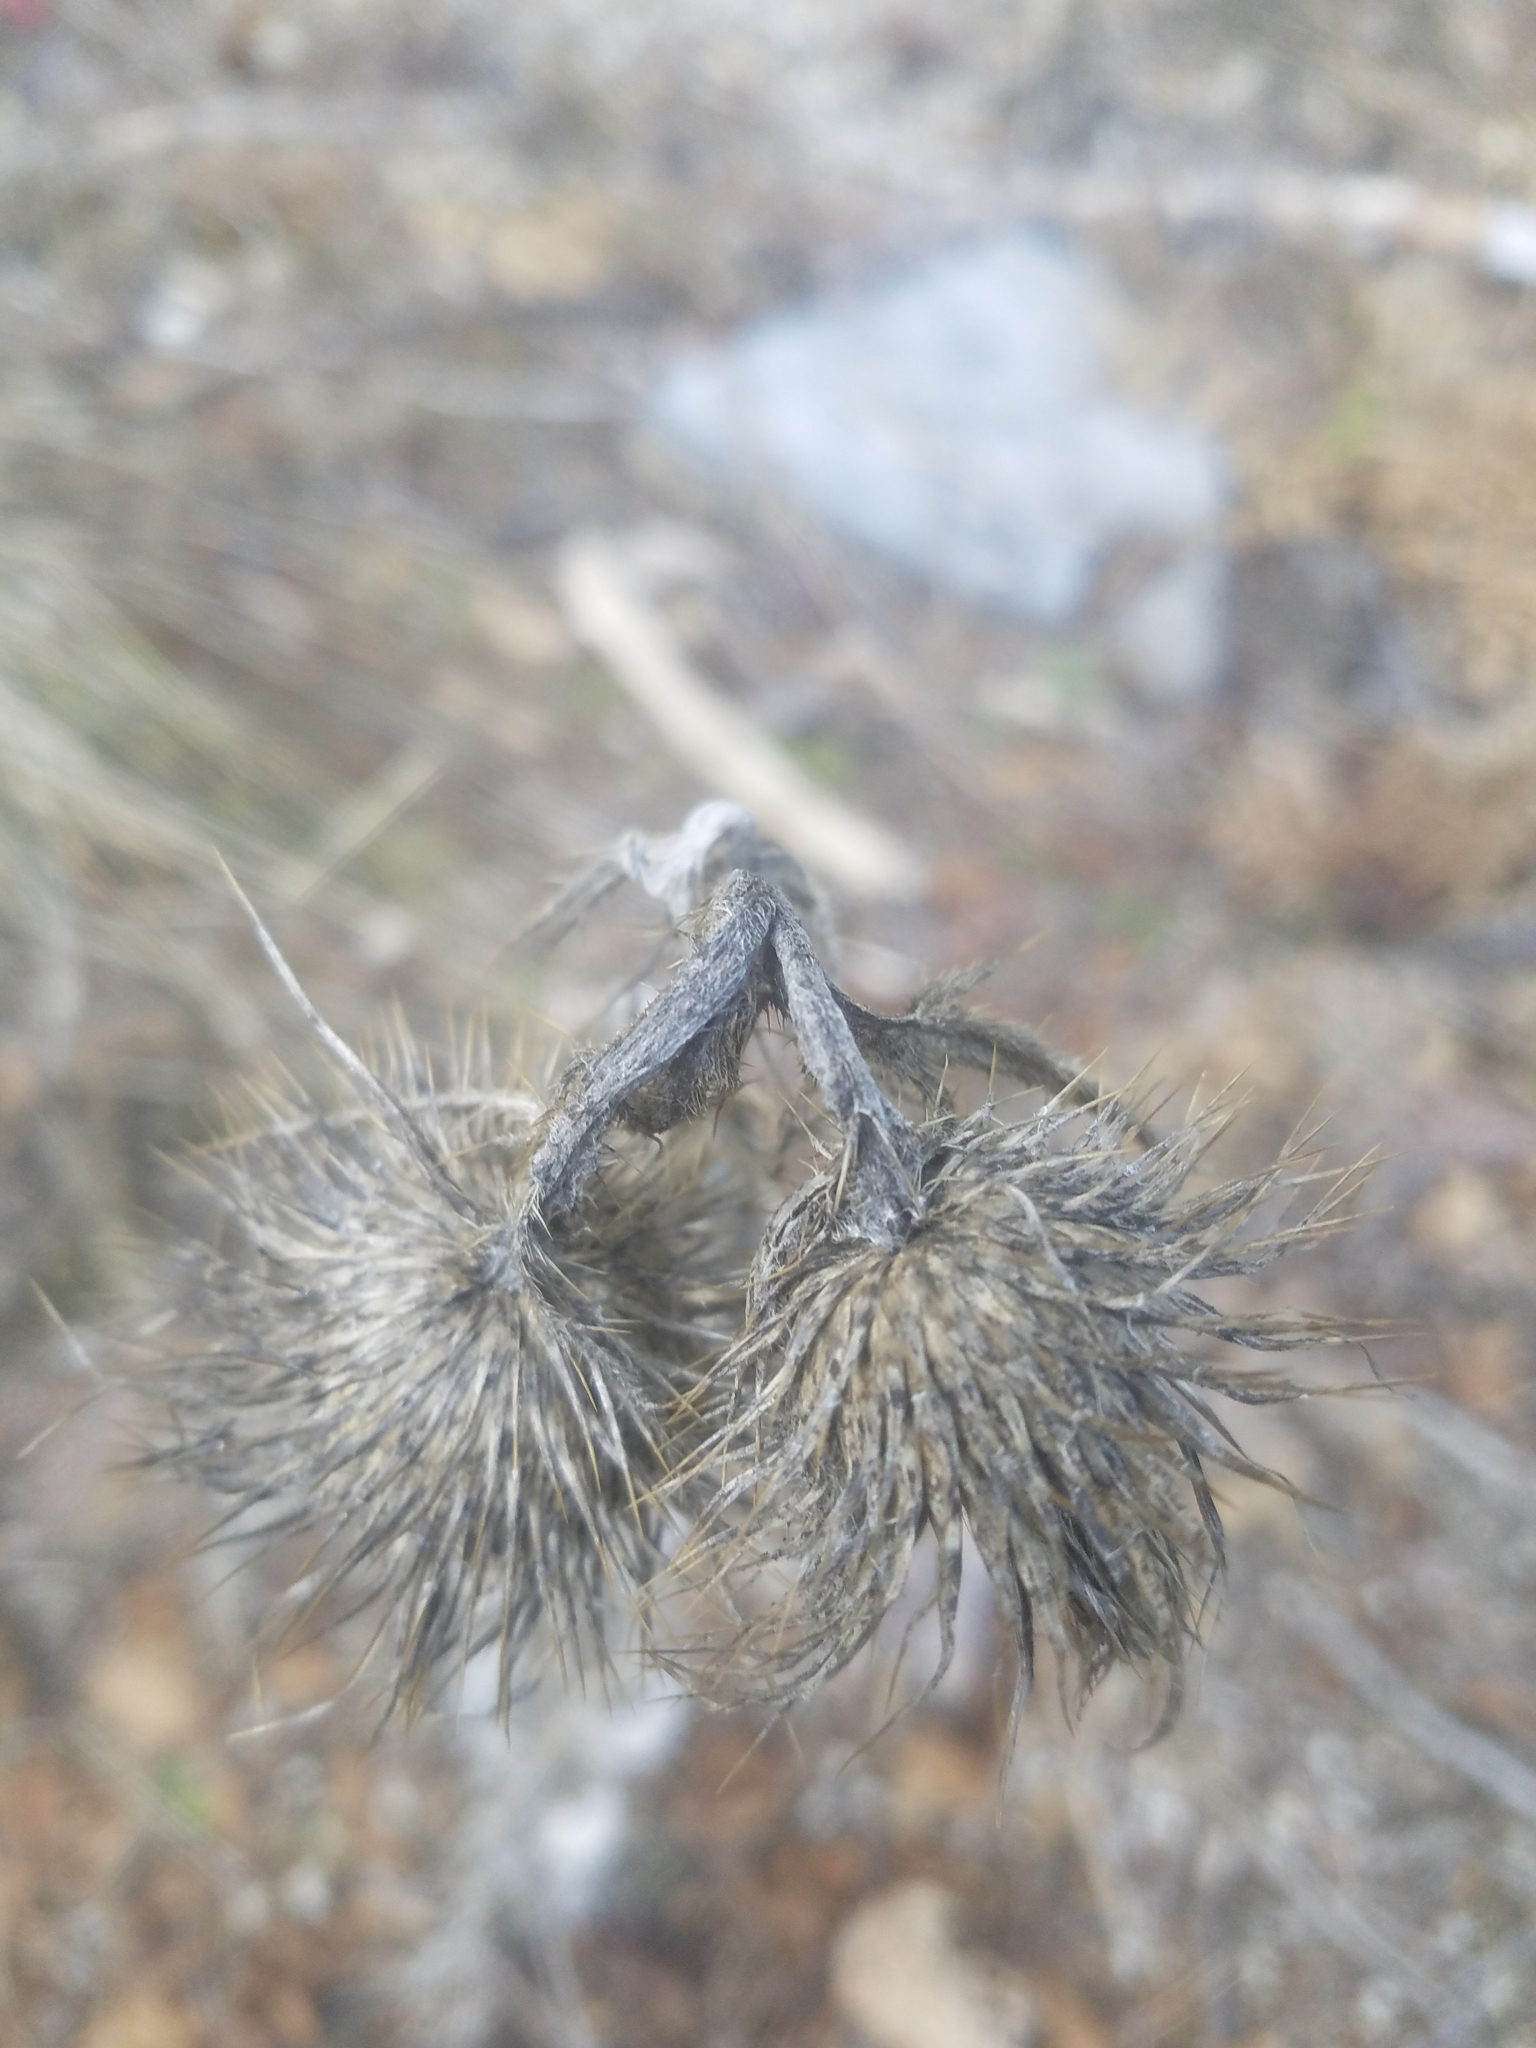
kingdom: Plantae
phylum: Tracheophyta
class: Magnoliopsida
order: Asterales
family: Asteraceae
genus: Cirsium
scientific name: Cirsium vulgare
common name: Bull thistle
